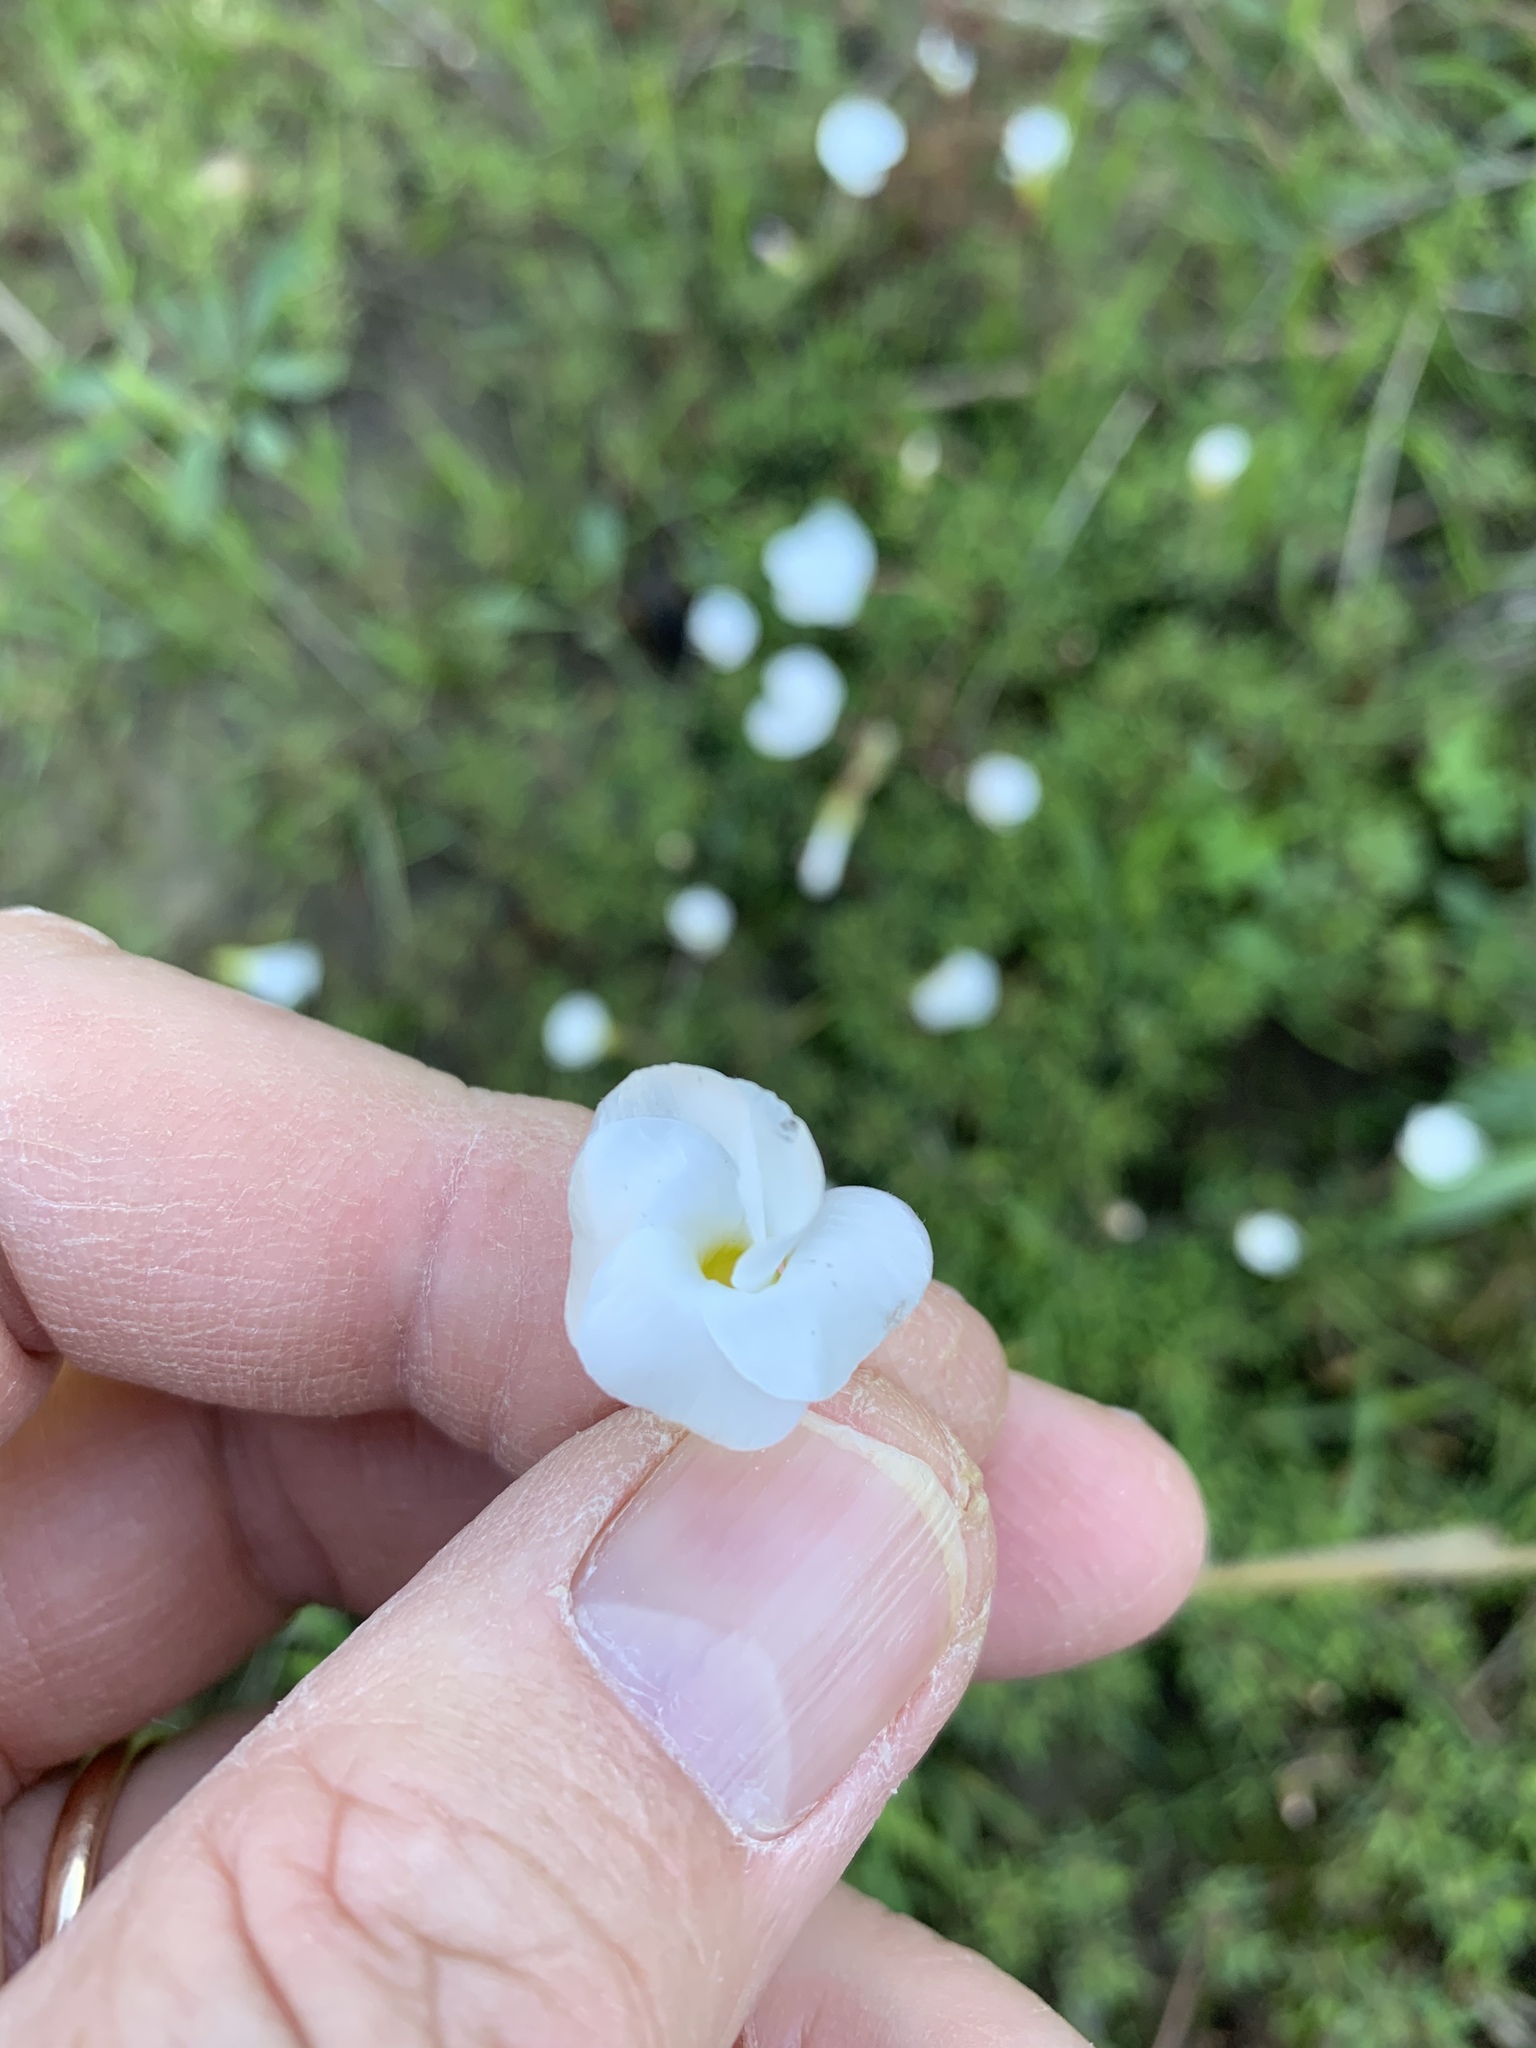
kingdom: Plantae
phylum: Tracheophyta
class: Magnoliopsida
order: Oxalidales
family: Oxalidaceae
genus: Oxalis
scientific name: Oxalis glabra
